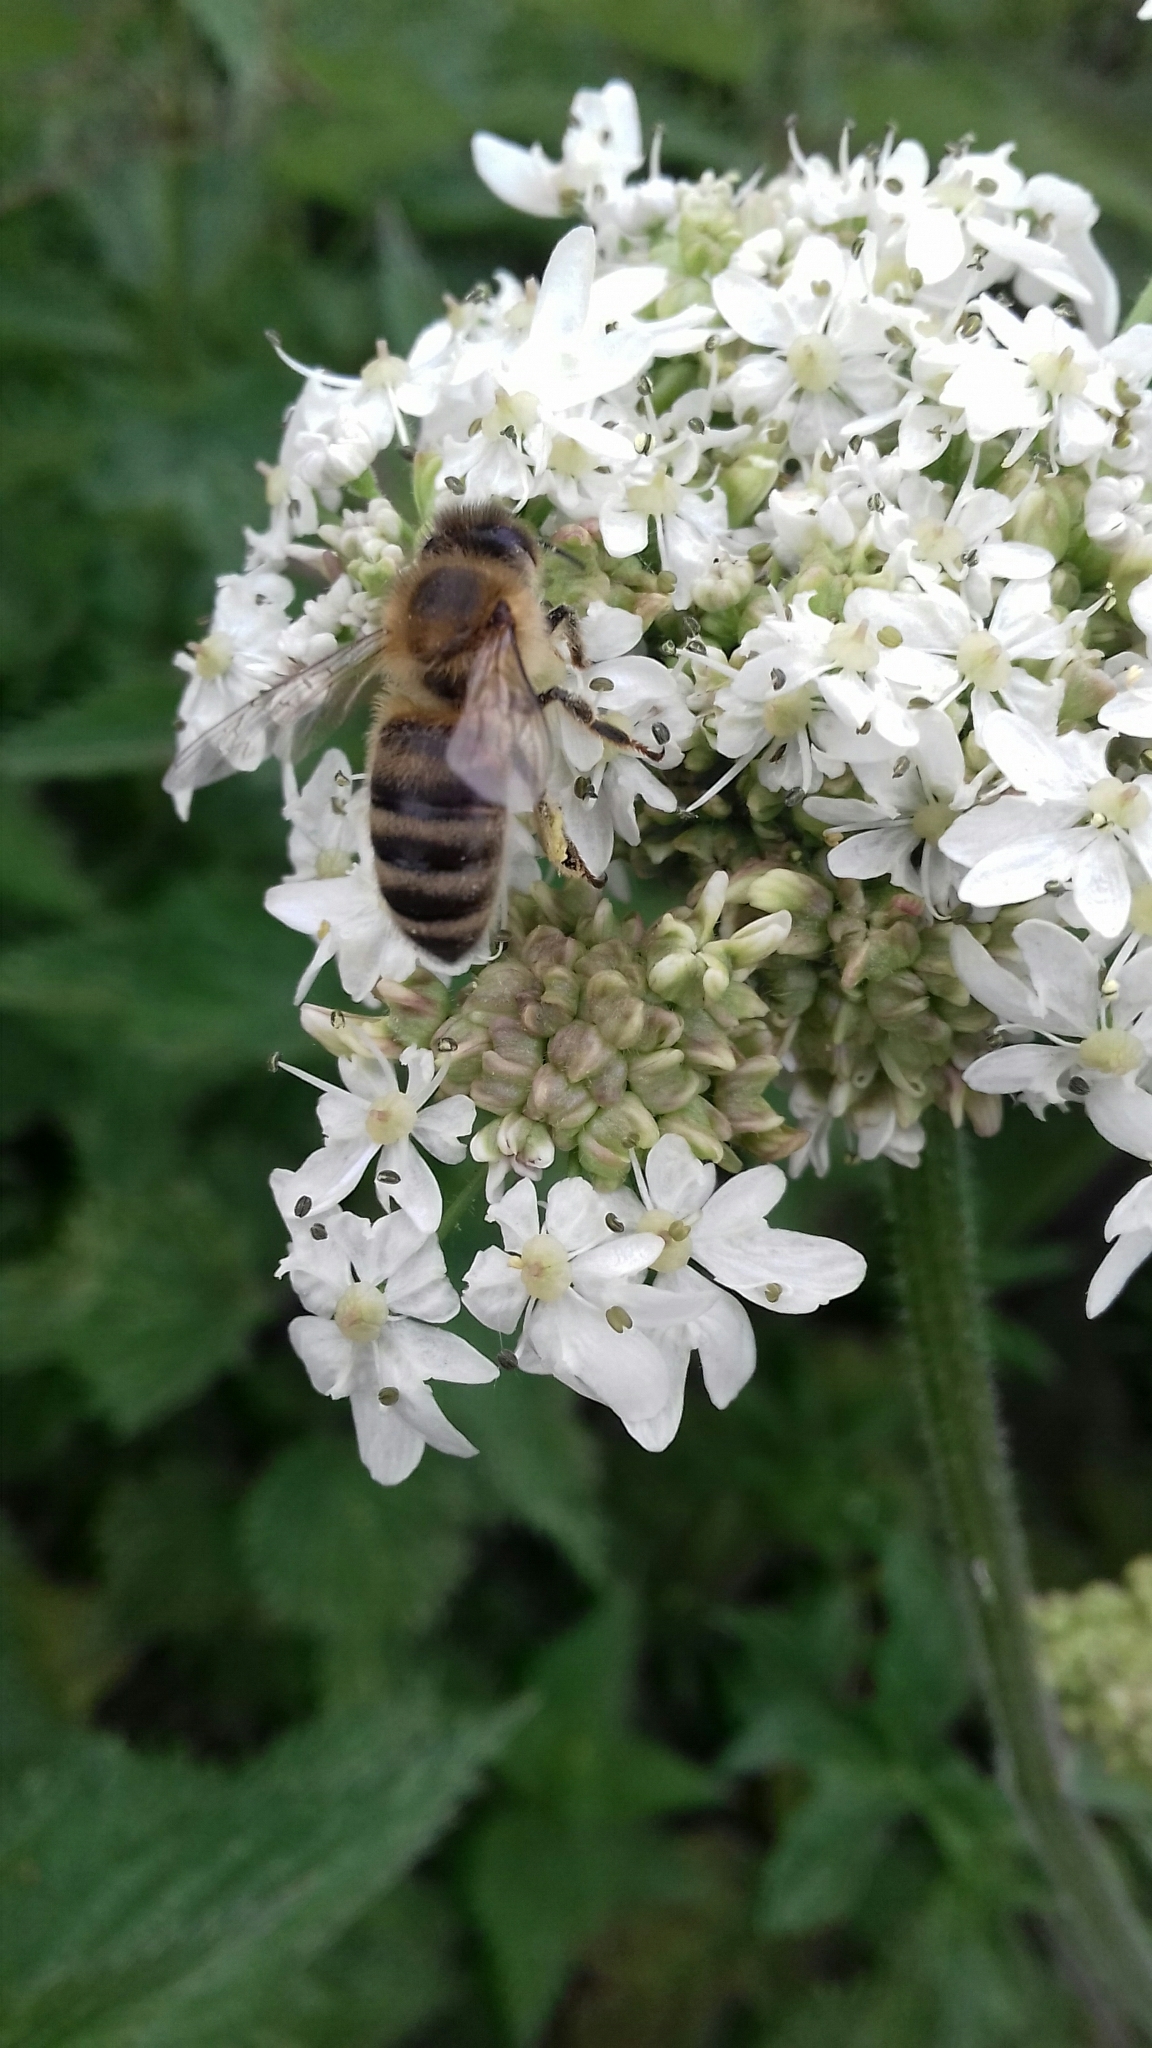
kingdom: Animalia
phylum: Arthropoda
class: Insecta
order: Hymenoptera
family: Apidae
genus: Apis
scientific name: Apis mellifera
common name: Honey bee
